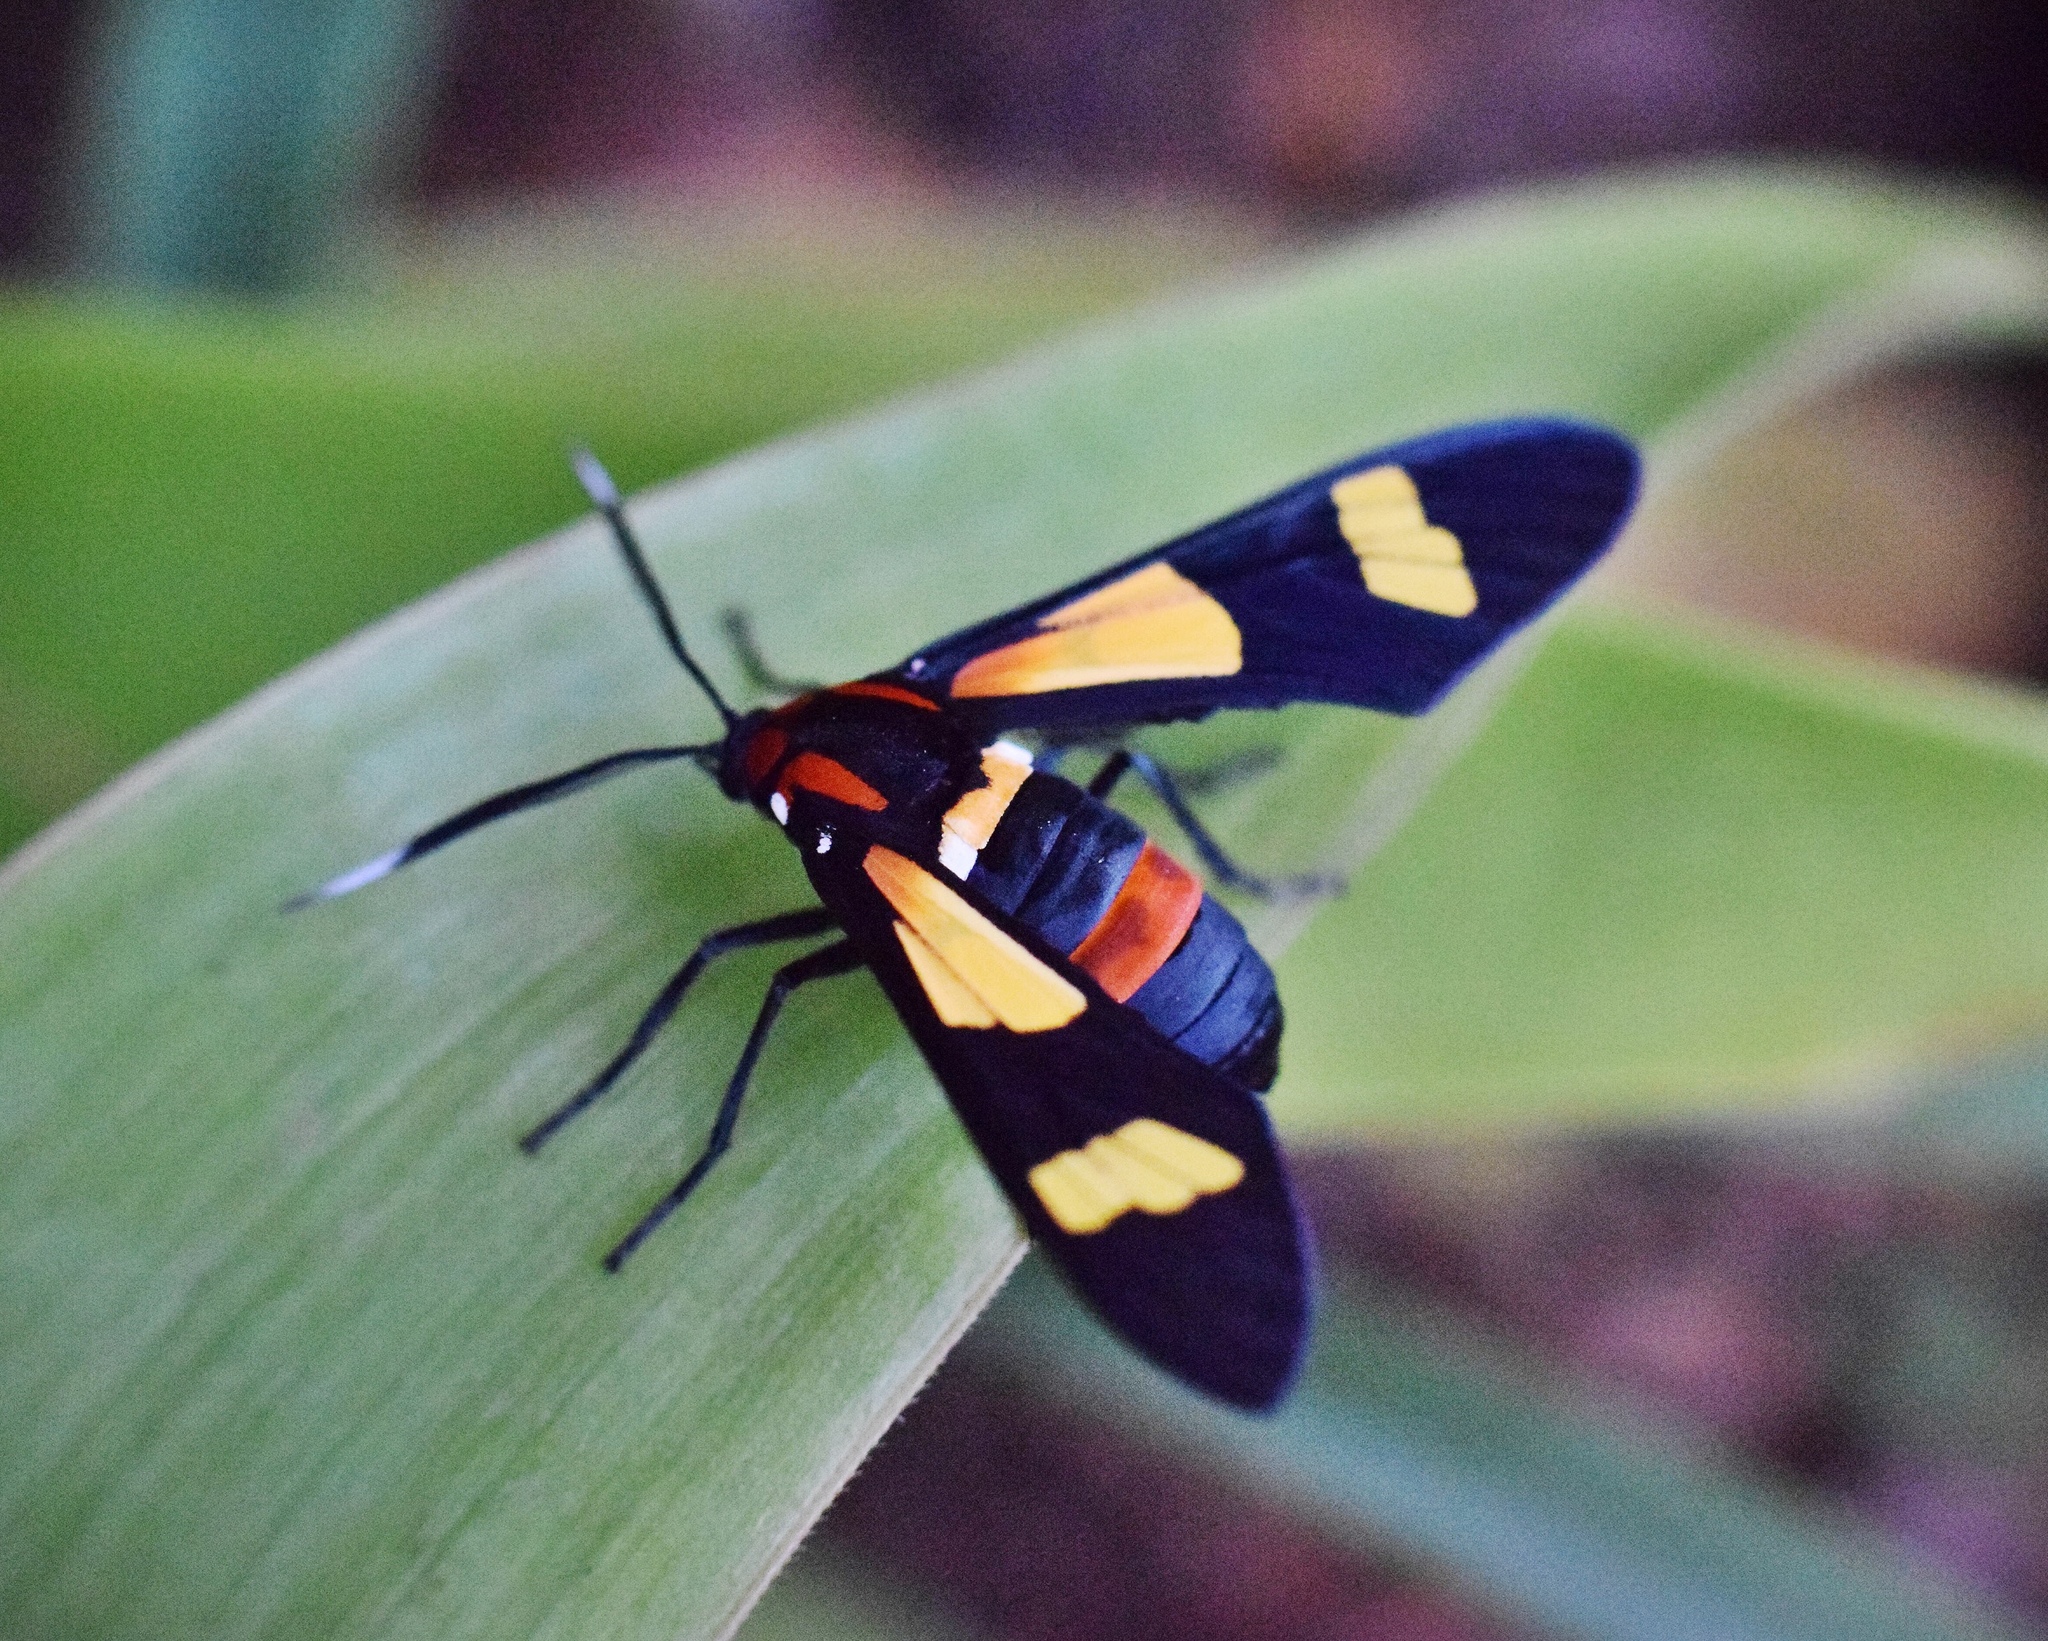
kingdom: Animalia
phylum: Arthropoda
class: Insecta
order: Lepidoptera
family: Erebidae
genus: Euchromia
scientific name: Euchromia amoena
